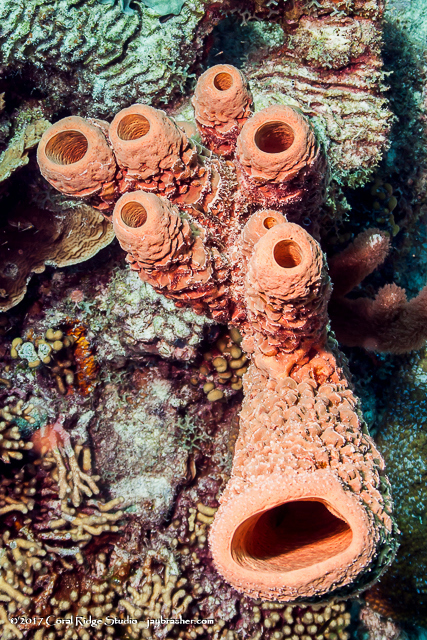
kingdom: Animalia
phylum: Porifera
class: Demospongiae
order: Verongiida
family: Aplysinidae
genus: Aplysina
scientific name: Aplysina archeri
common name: Stove-pipe sponge
